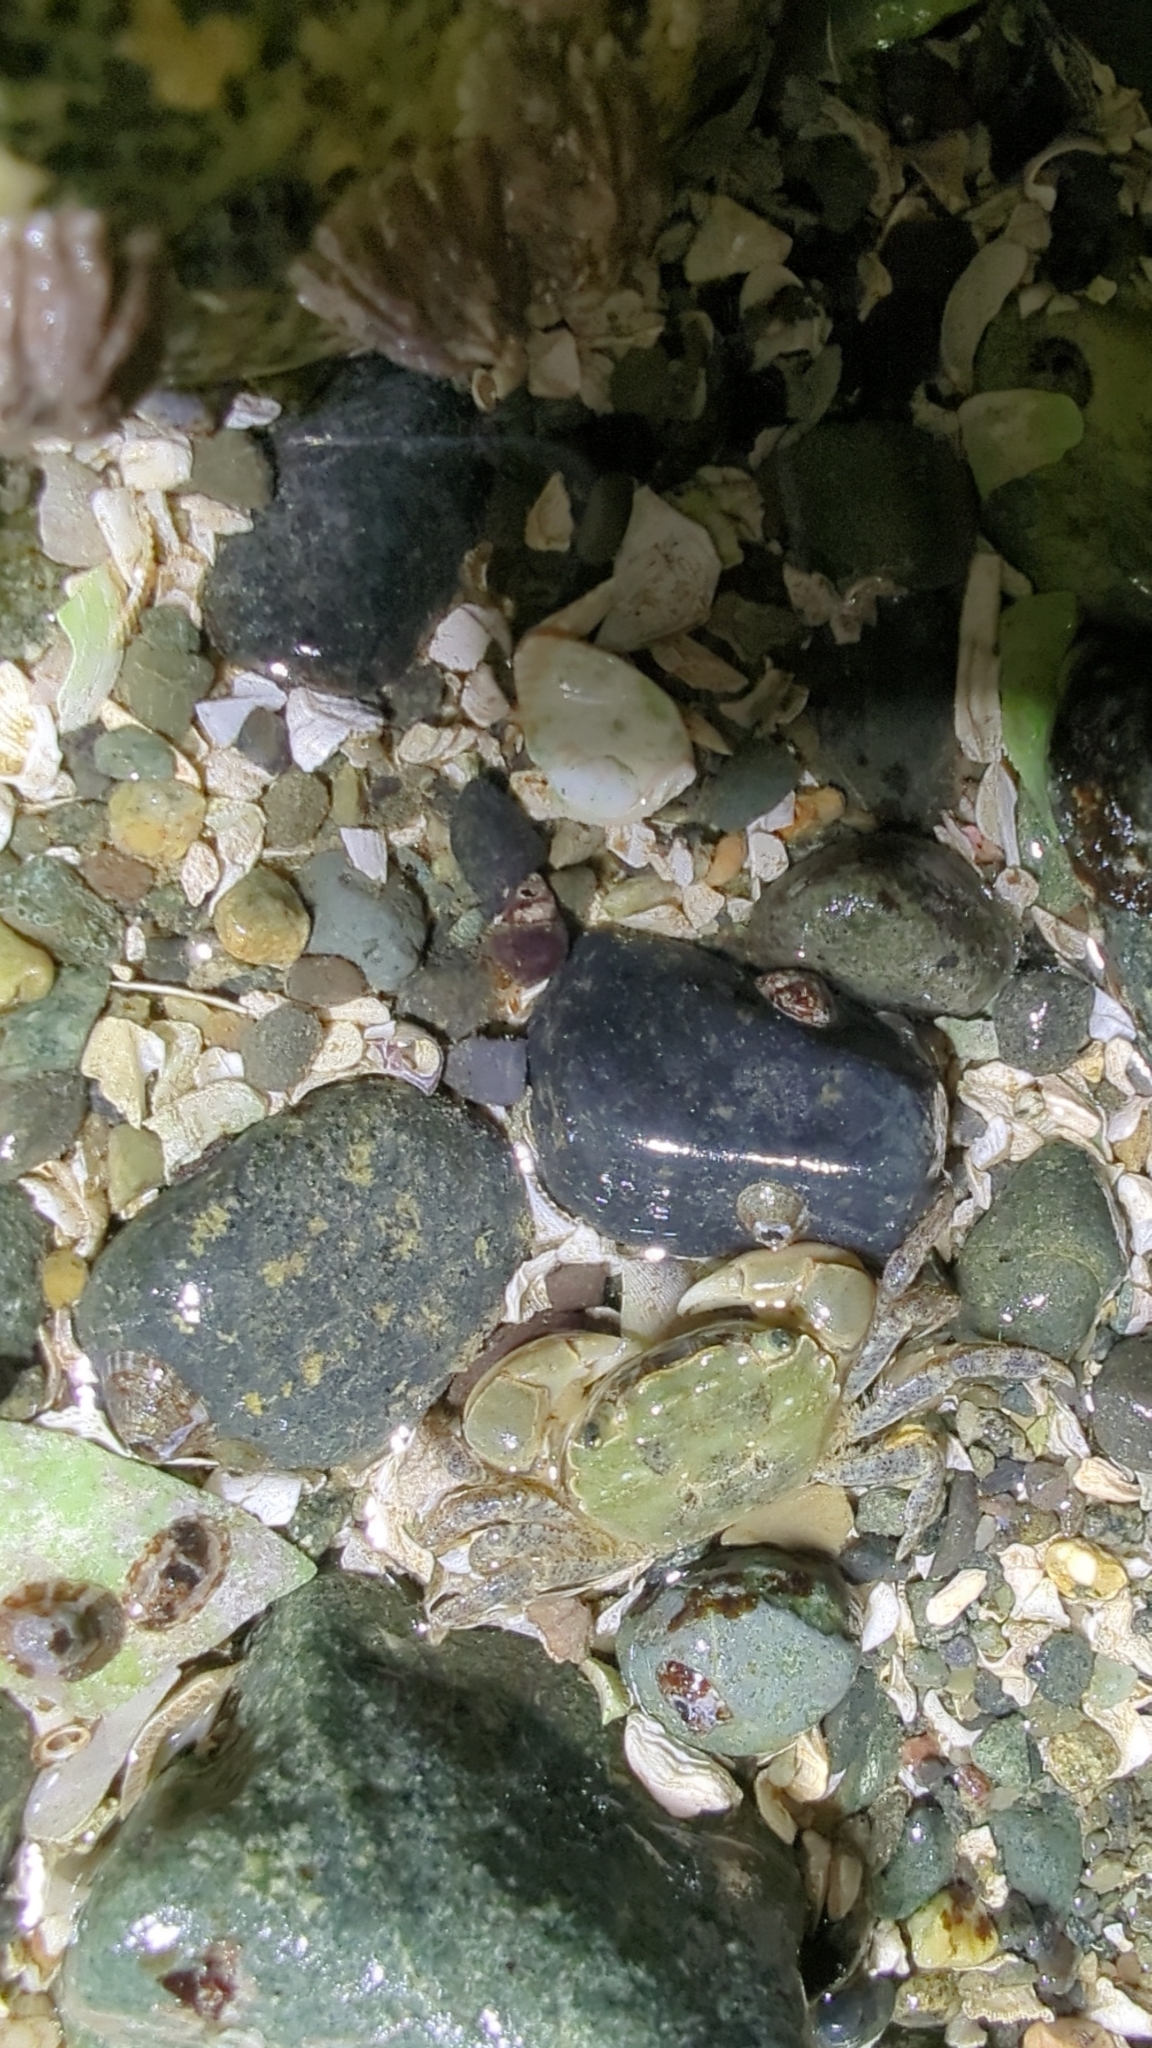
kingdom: Animalia
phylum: Arthropoda
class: Malacostraca
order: Decapoda
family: Varunidae
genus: Hemigrapsus
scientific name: Hemigrapsus oregonensis
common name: Yellow shore crab
